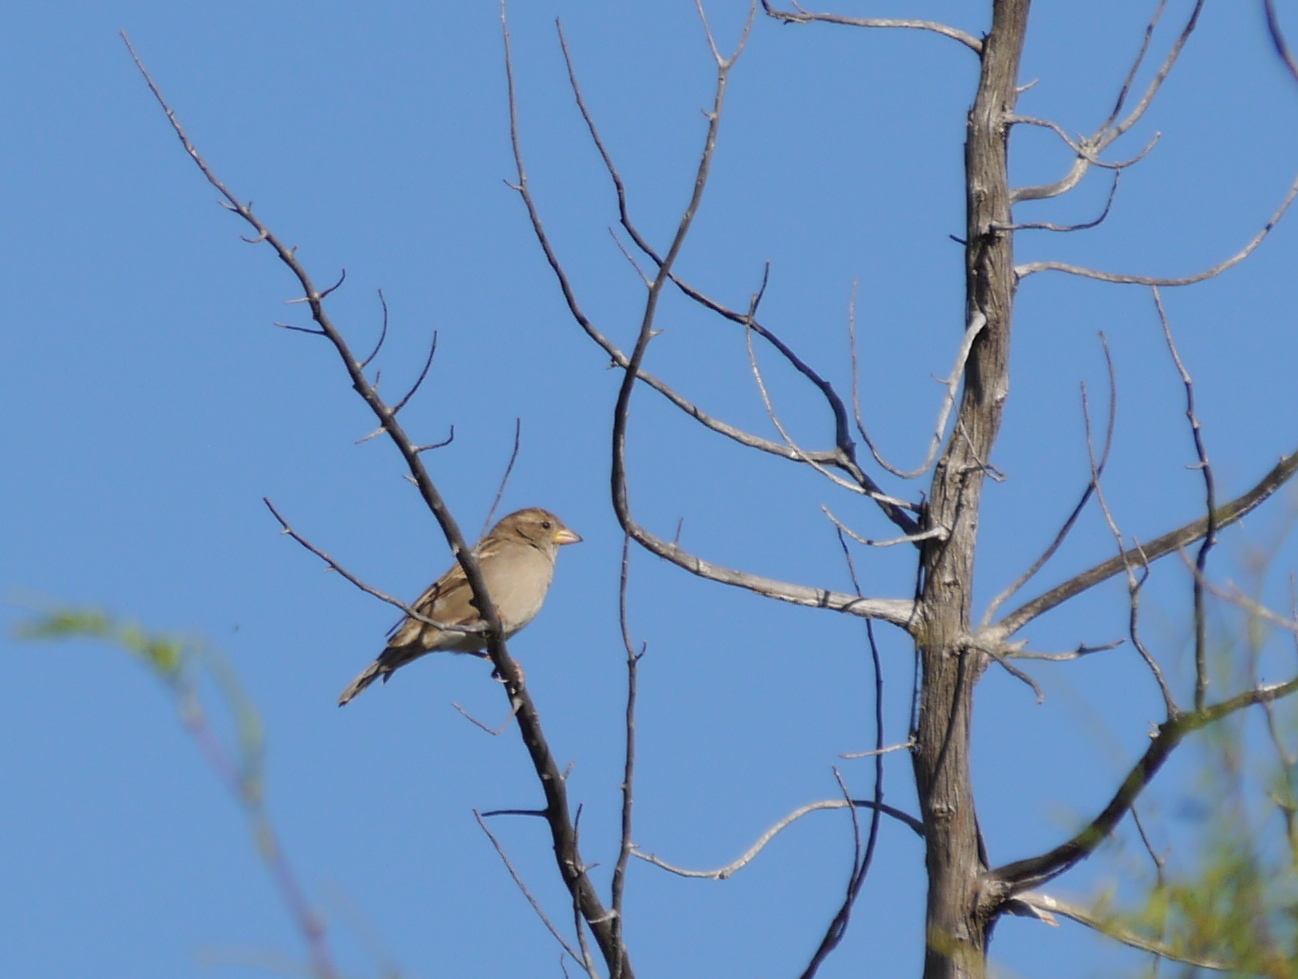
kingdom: Animalia
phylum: Chordata
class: Aves
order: Passeriformes
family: Passeridae
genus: Passer
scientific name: Passer domesticus
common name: House sparrow
